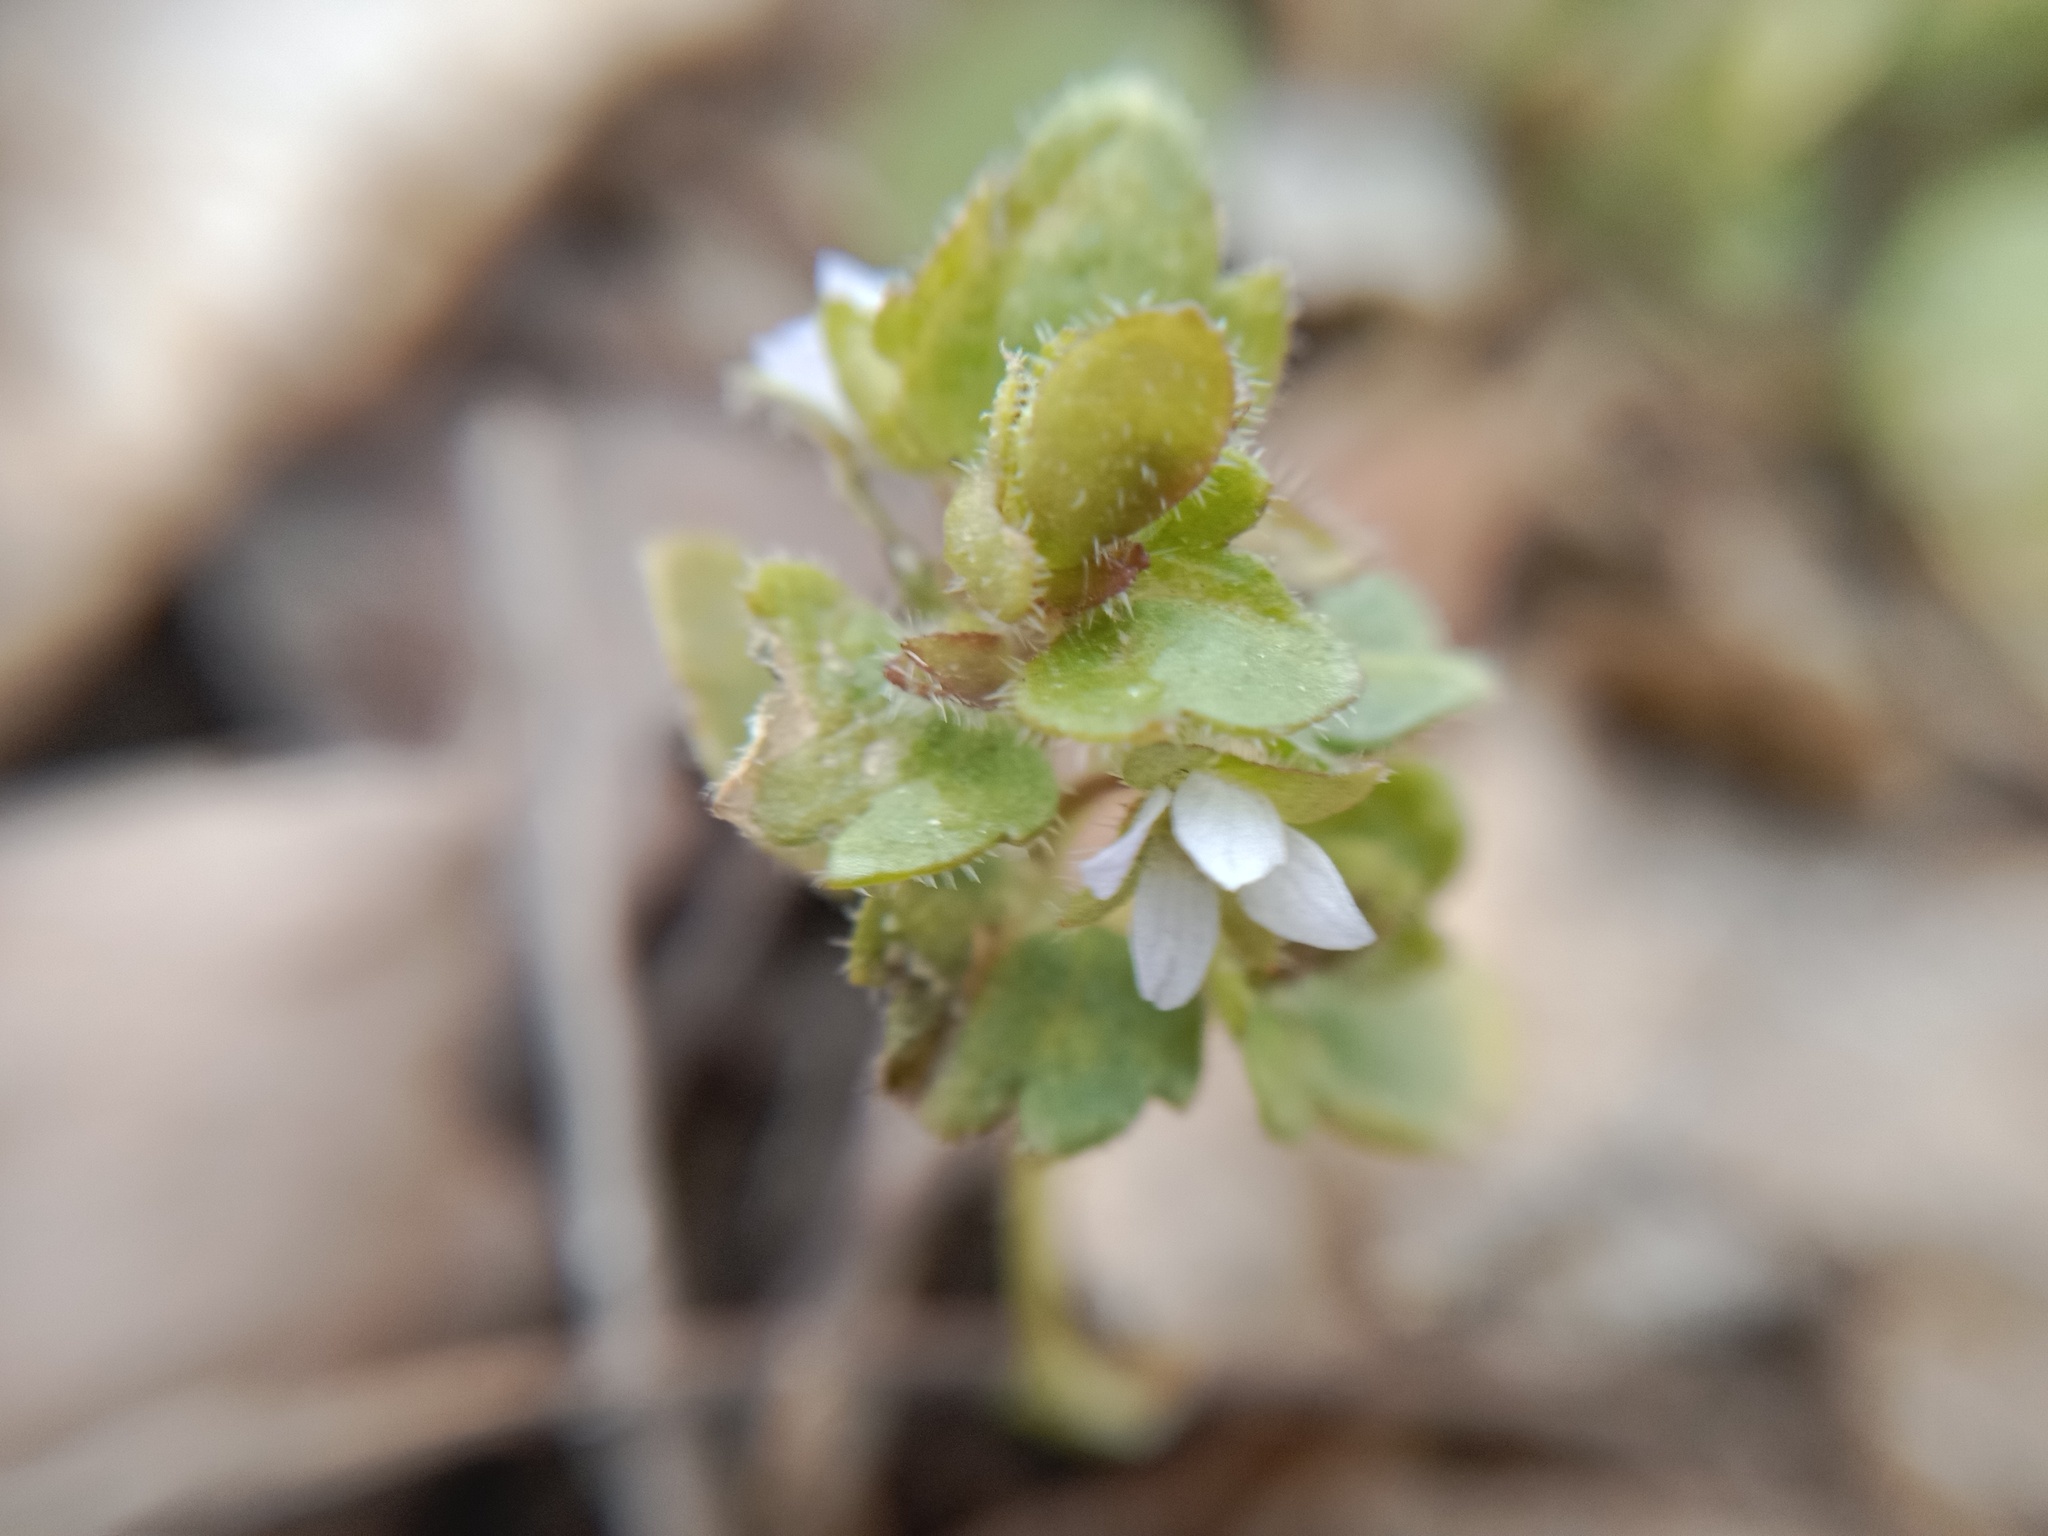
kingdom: Plantae
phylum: Tracheophyta
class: Magnoliopsida
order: Lamiales
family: Plantaginaceae
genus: Veronica
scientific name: Veronica sublobata
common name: False ivy-leaved speedwell
